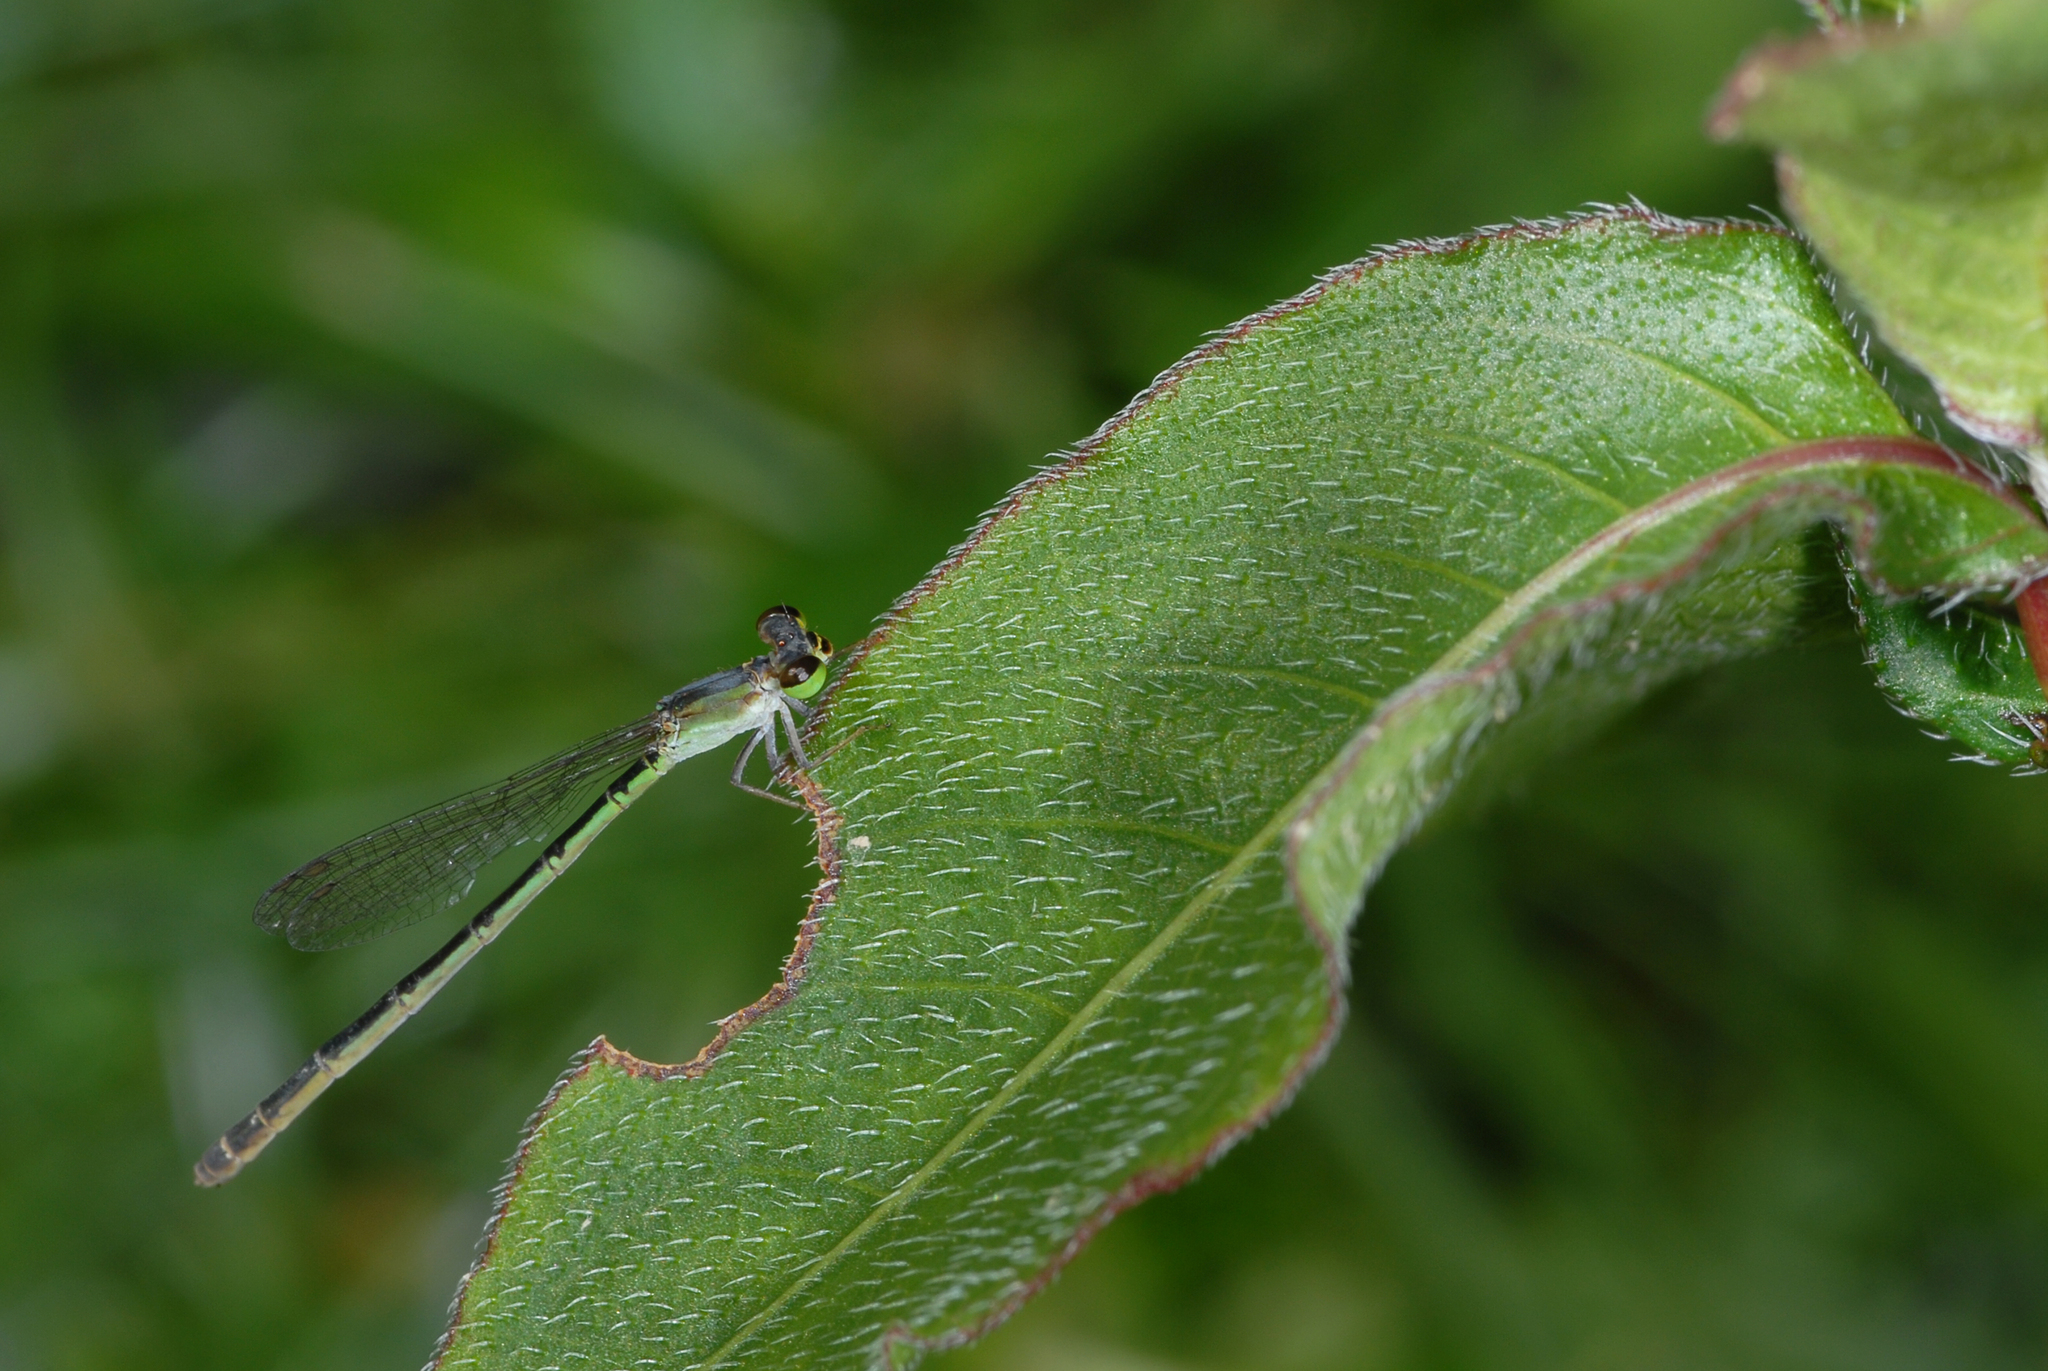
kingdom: Animalia
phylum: Arthropoda
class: Insecta
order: Odonata
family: Coenagrionidae
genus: Agriocnemis
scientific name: Agriocnemis femina
